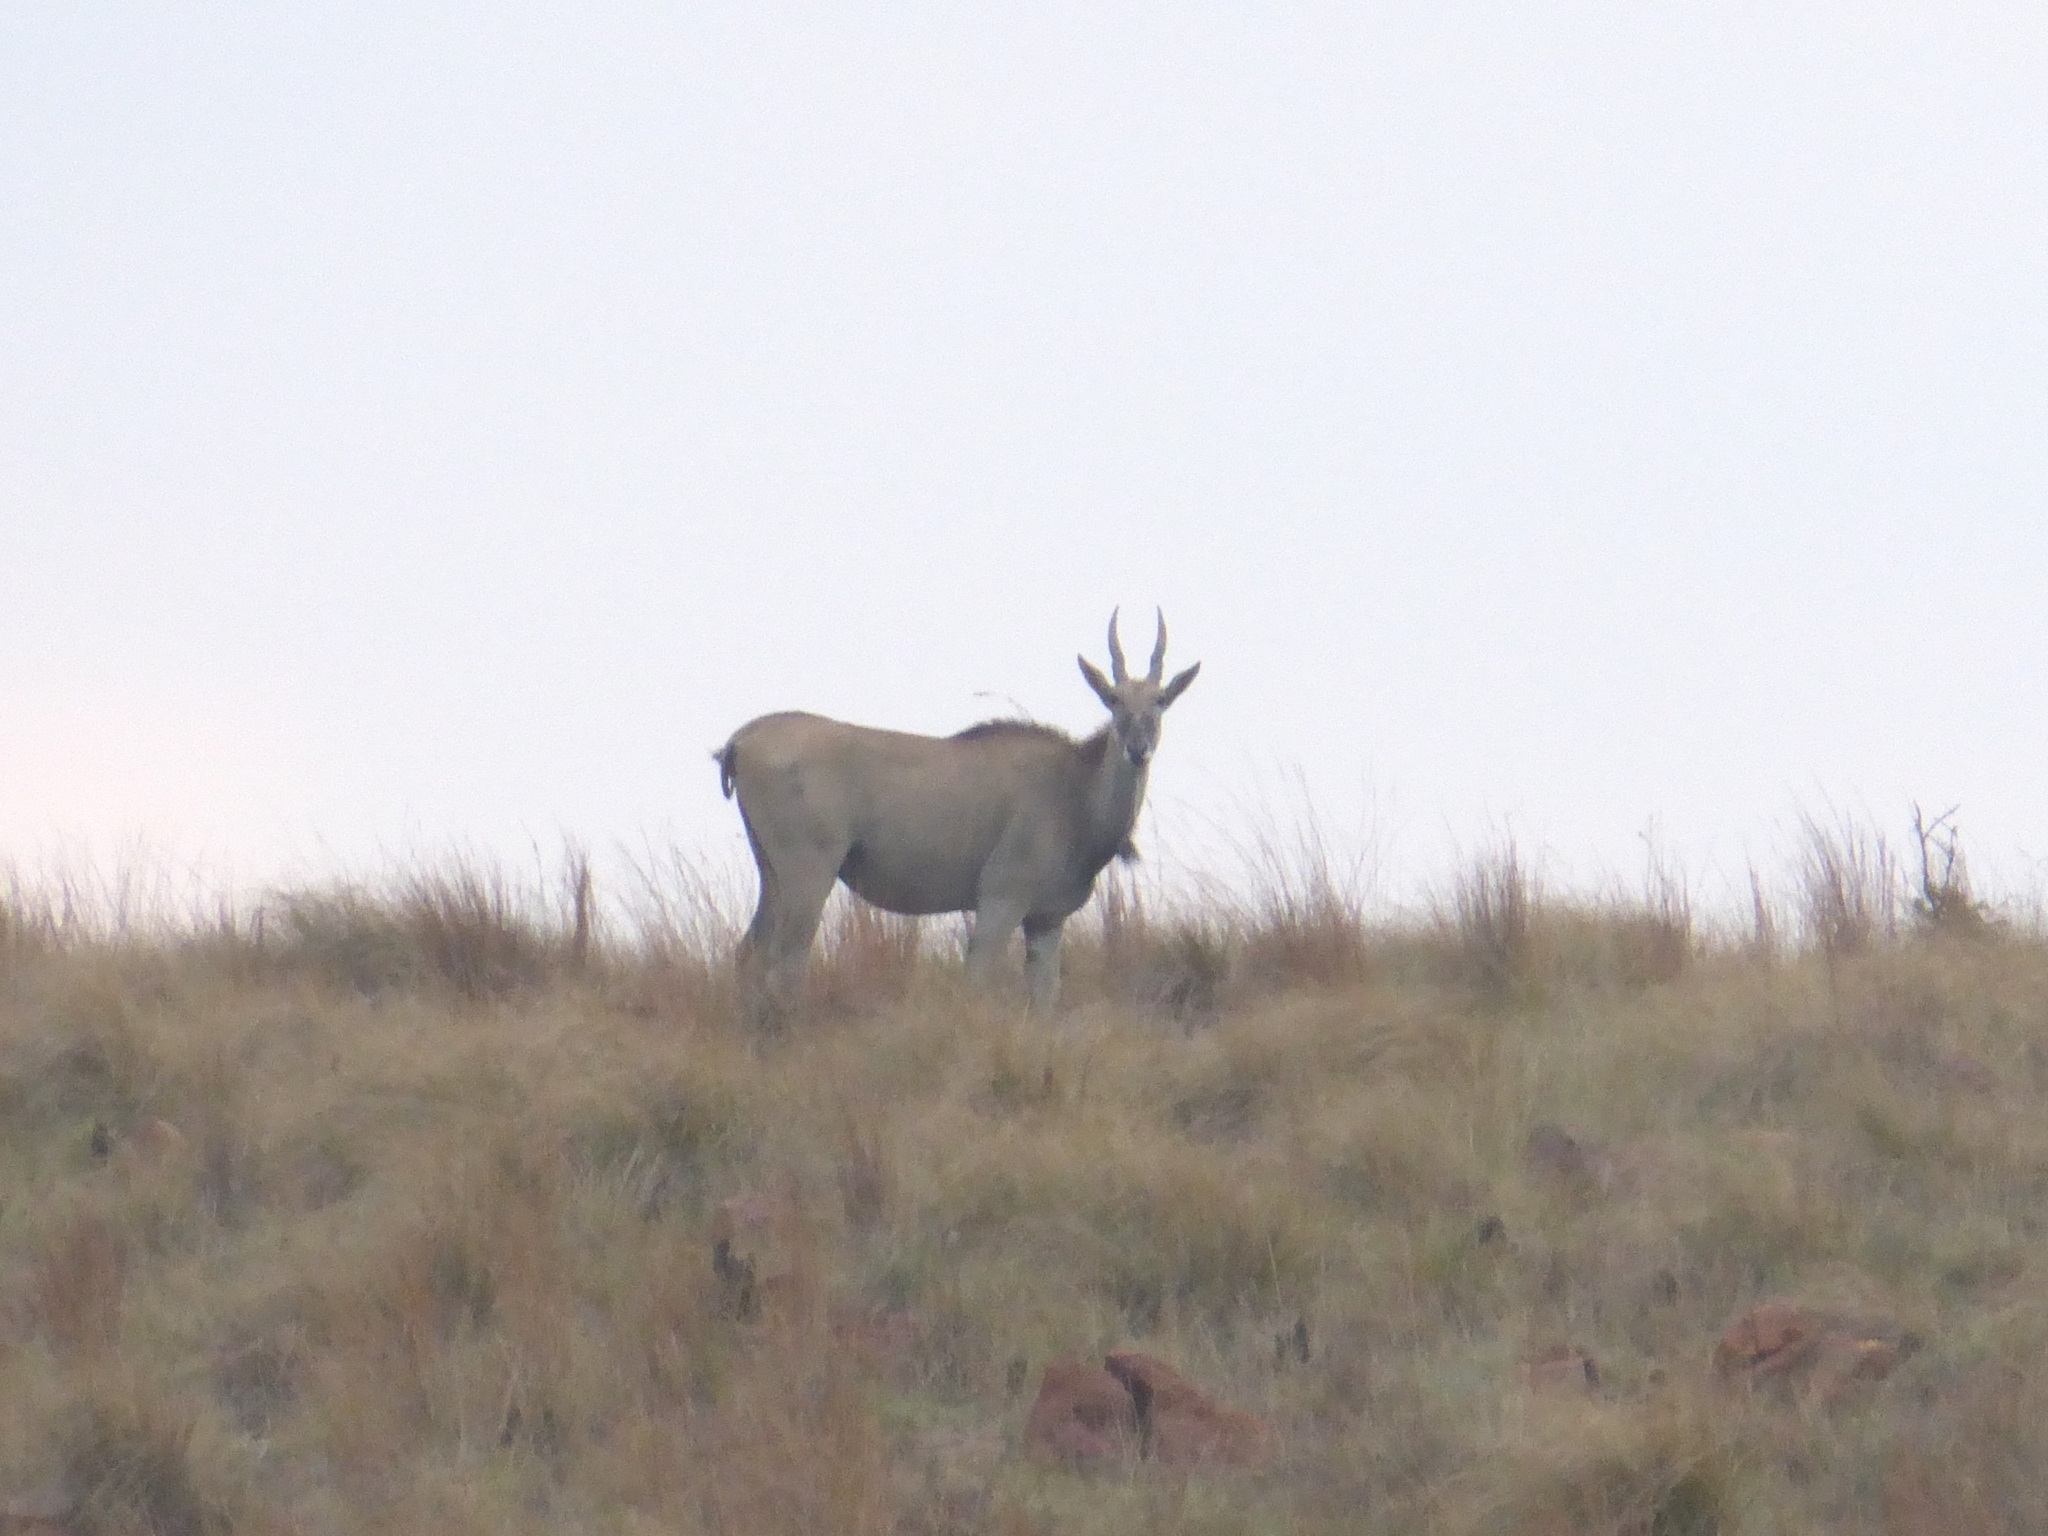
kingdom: Animalia
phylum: Chordata
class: Mammalia
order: Artiodactyla
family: Bovidae
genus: Taurotragus
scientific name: Taurotragus oryx
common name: Common eland
